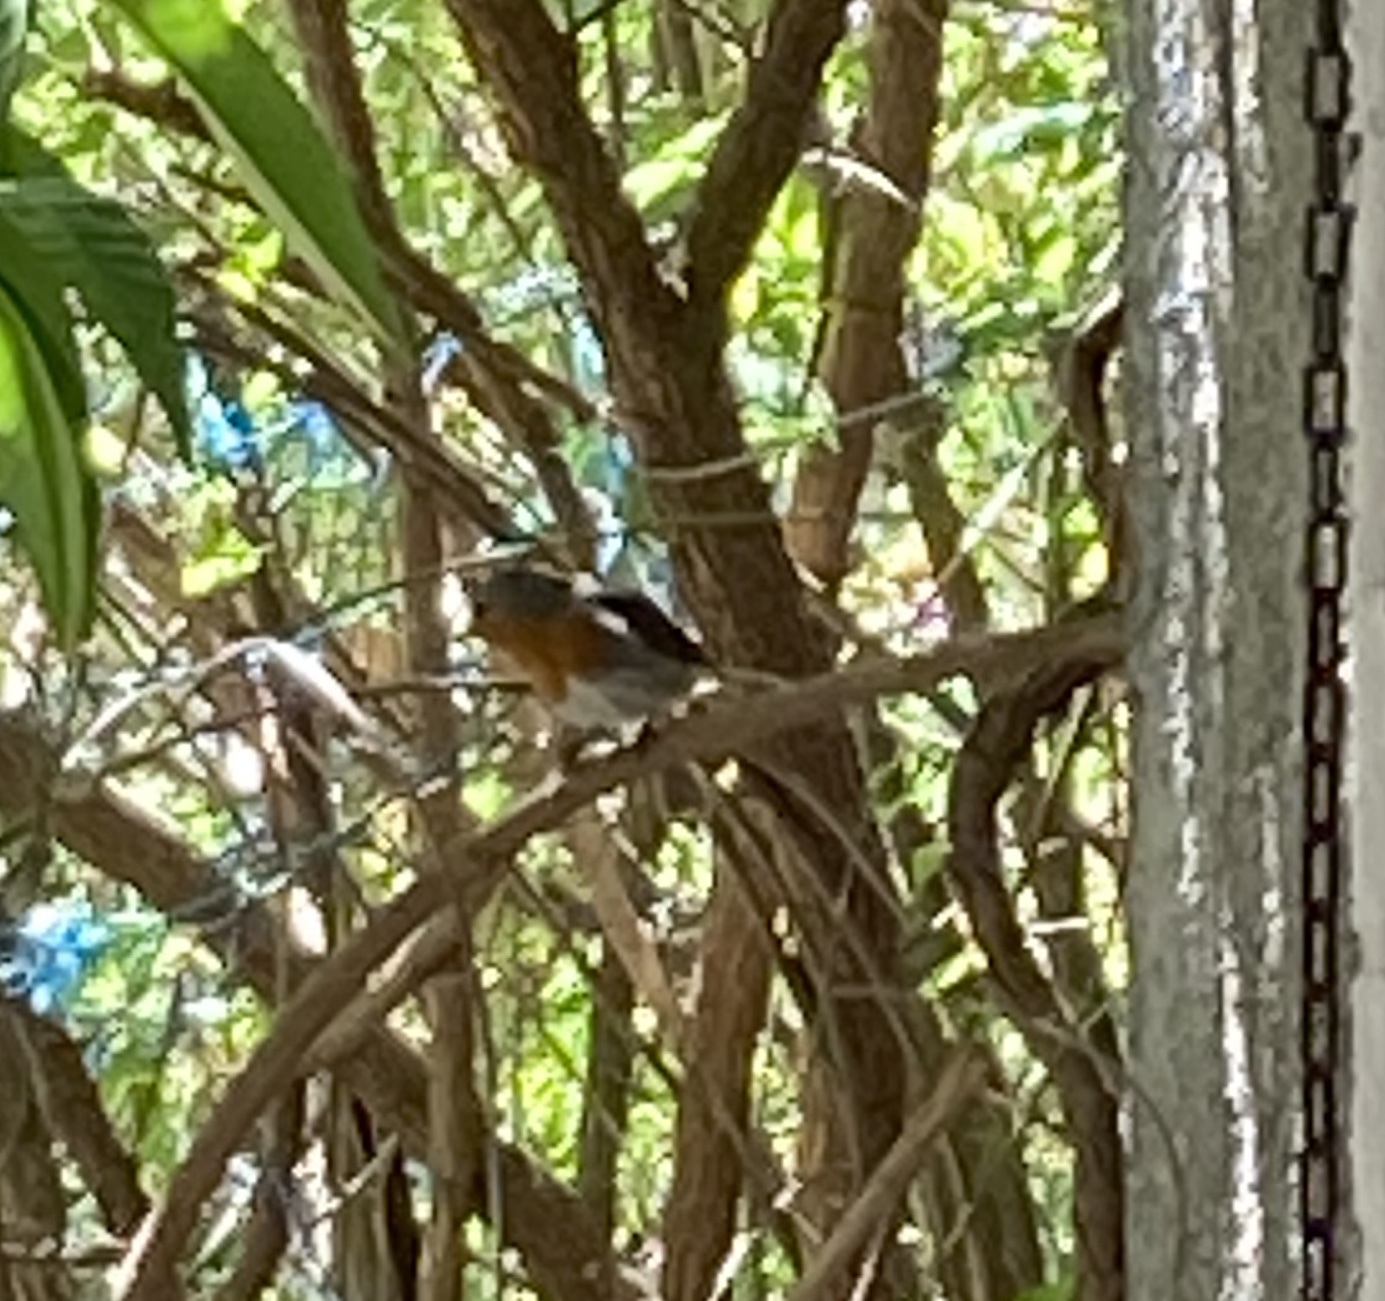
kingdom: Animalia
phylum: Chordata
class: Aves
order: Passeriformes
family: Muscicapidae
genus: Erithacus
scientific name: Erithacus rubecula
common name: European robin
